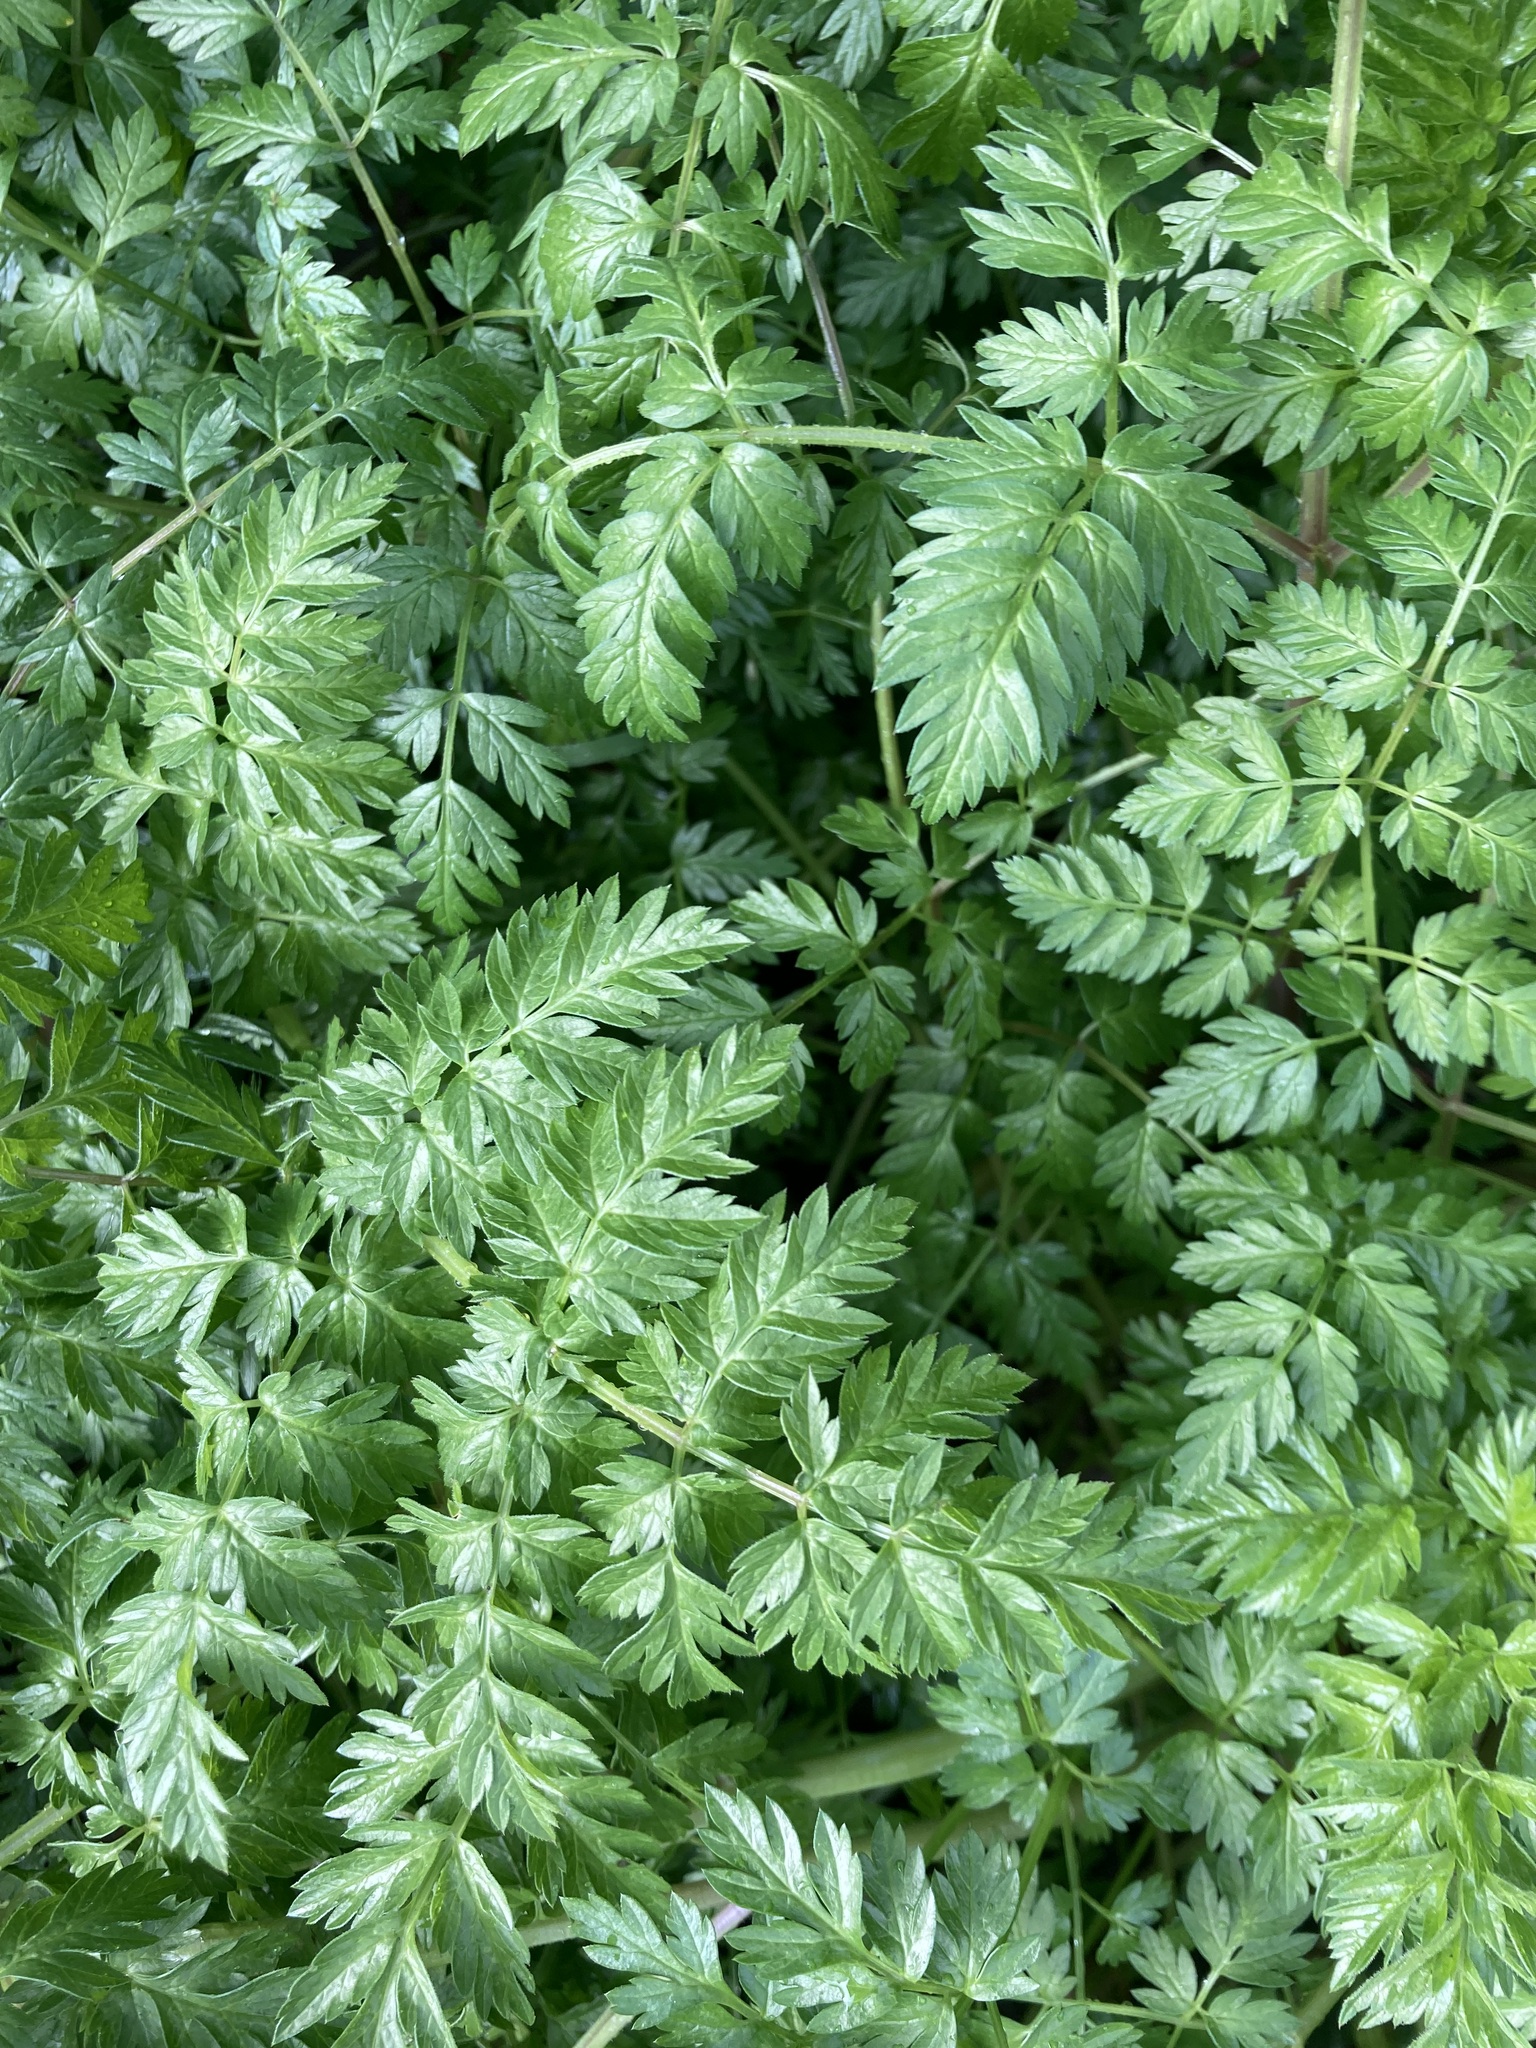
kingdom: Plantae
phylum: Tracheophyta
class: Magnoliopsida
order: Apiales
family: Apiaceae
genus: Anthriscus
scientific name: Anthriscus sylvestris
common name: Cow parsley
